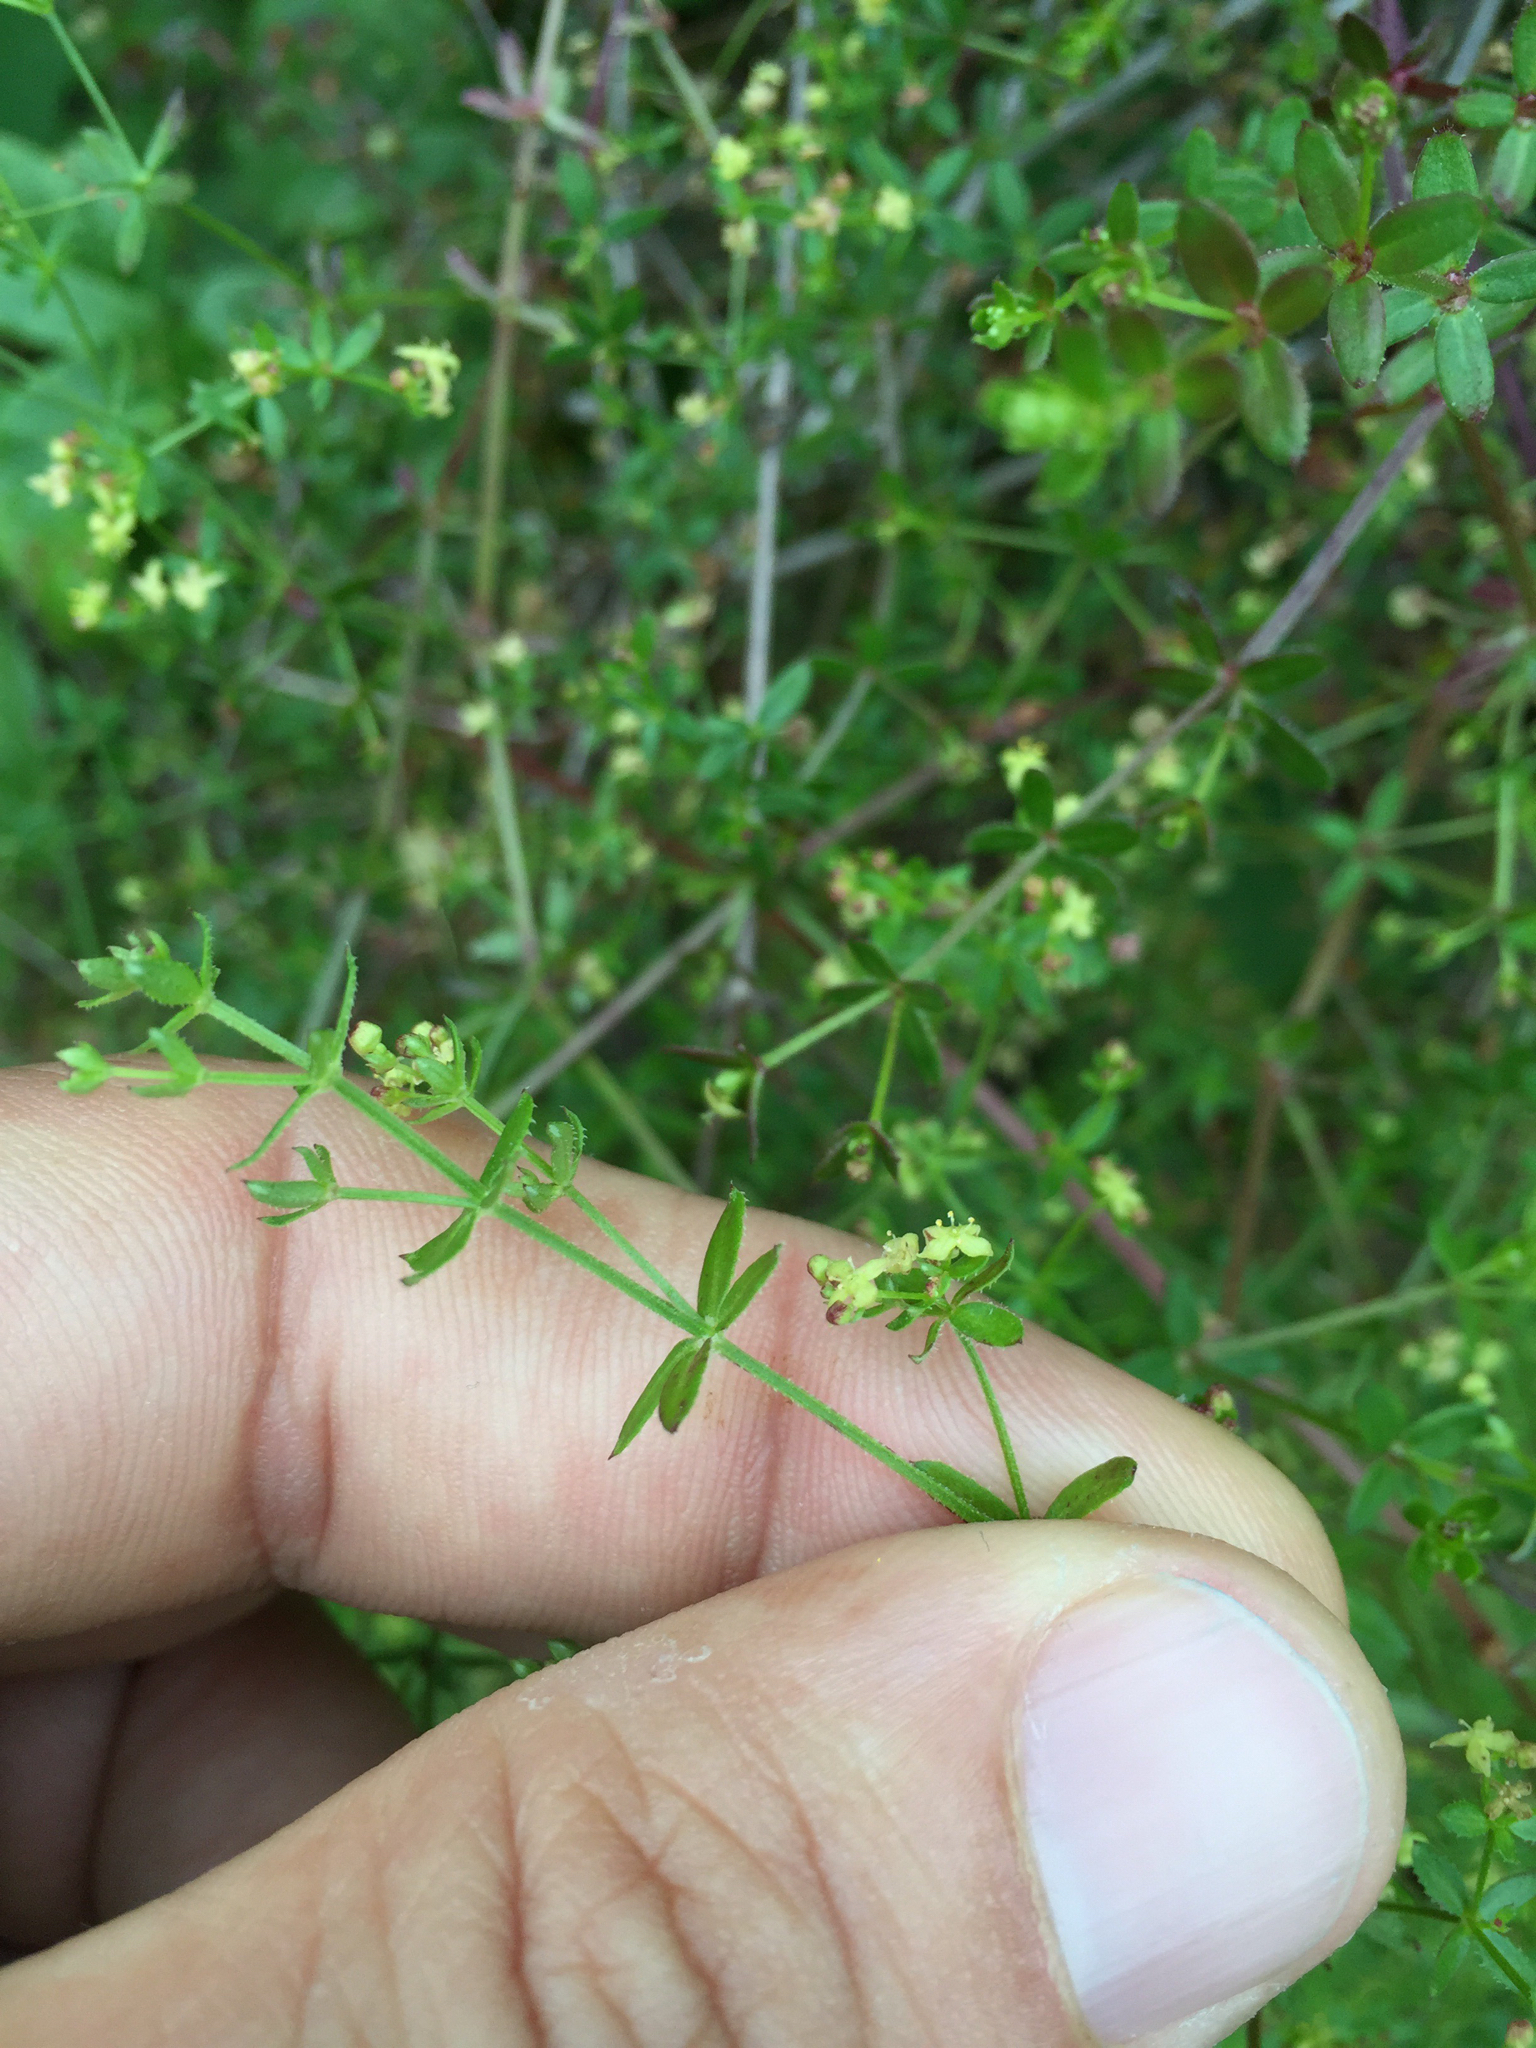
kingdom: Plantae
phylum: Tracheophyta
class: Magnoliopsida
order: Gentianales
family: Rubiaceae
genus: Galium
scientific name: Galium porrigens
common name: Climbing bedstraw
